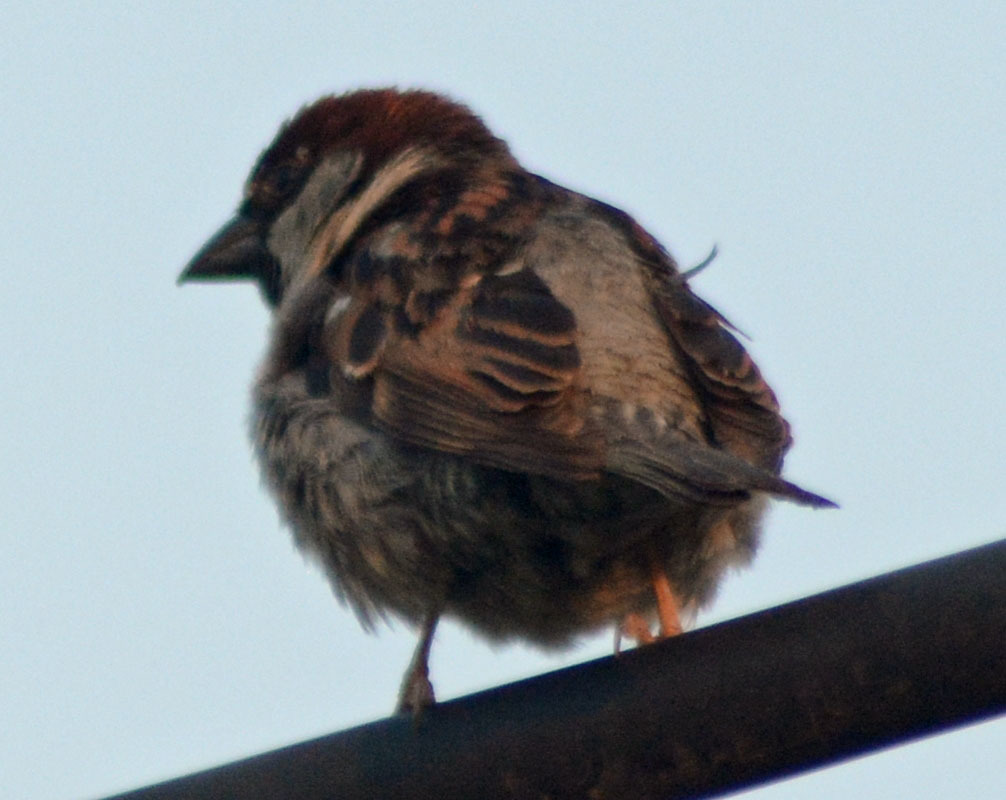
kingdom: Animalia
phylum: Chordata
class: Aves
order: Passeriformes
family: Passeridae
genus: Passer
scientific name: Passer domesticus
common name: House sparrow
